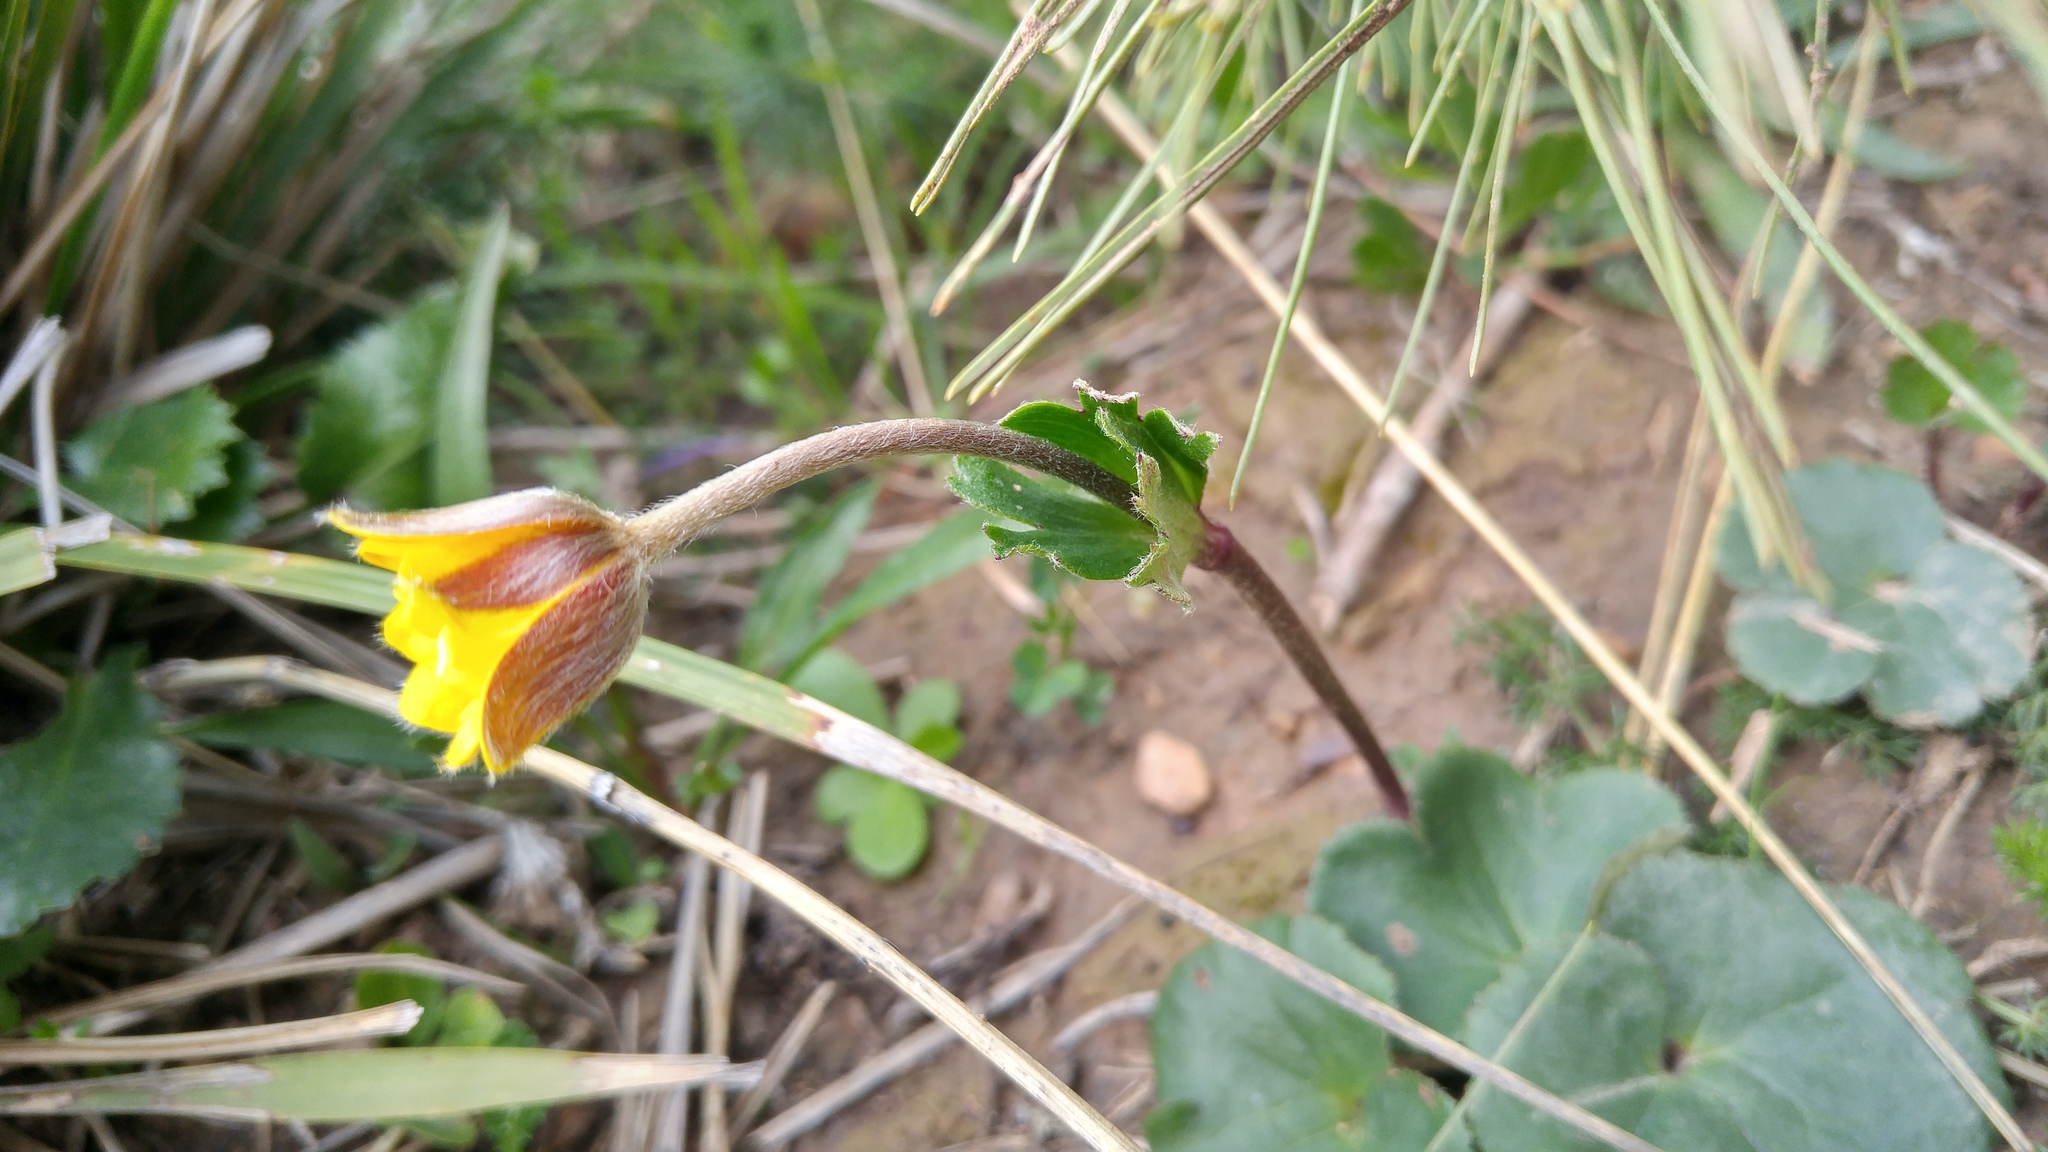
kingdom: Plantae
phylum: Tracheophyta
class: Magnoliopsida
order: Ranunculales
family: Ranunculaceae
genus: Anemone
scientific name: Anemone palmata
